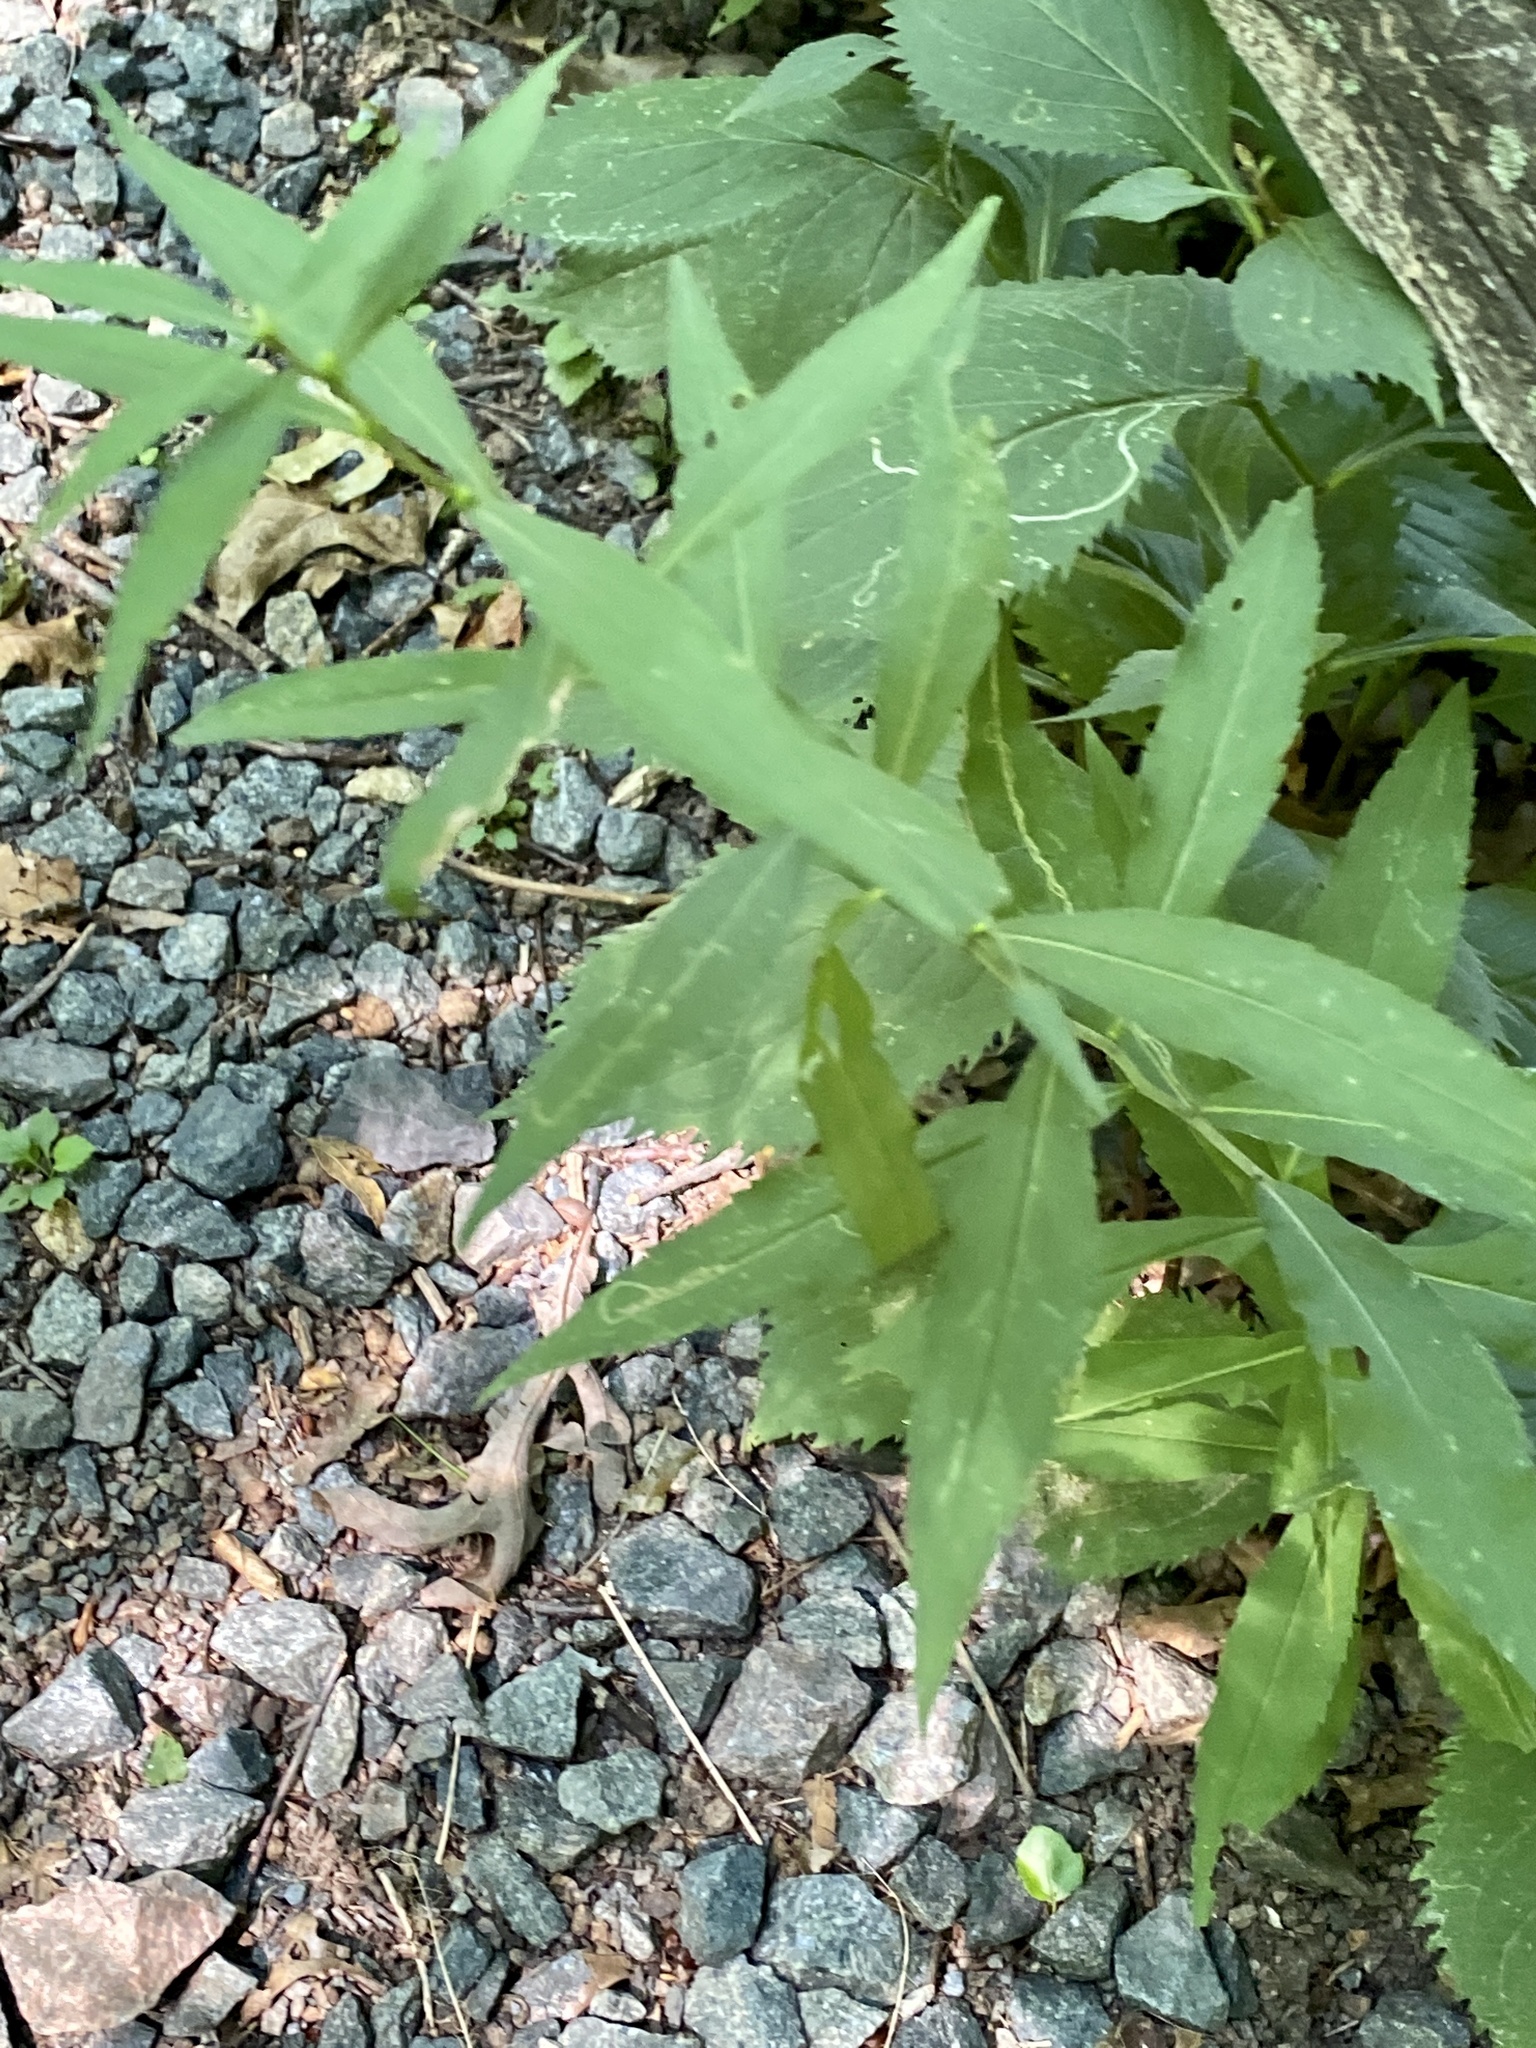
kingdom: Plantae
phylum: Tracheophyta
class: Magnoliopsida
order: Asterales
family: Asteraceae
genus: Solidago
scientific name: Solidago caesia
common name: Woodland goldenrod
